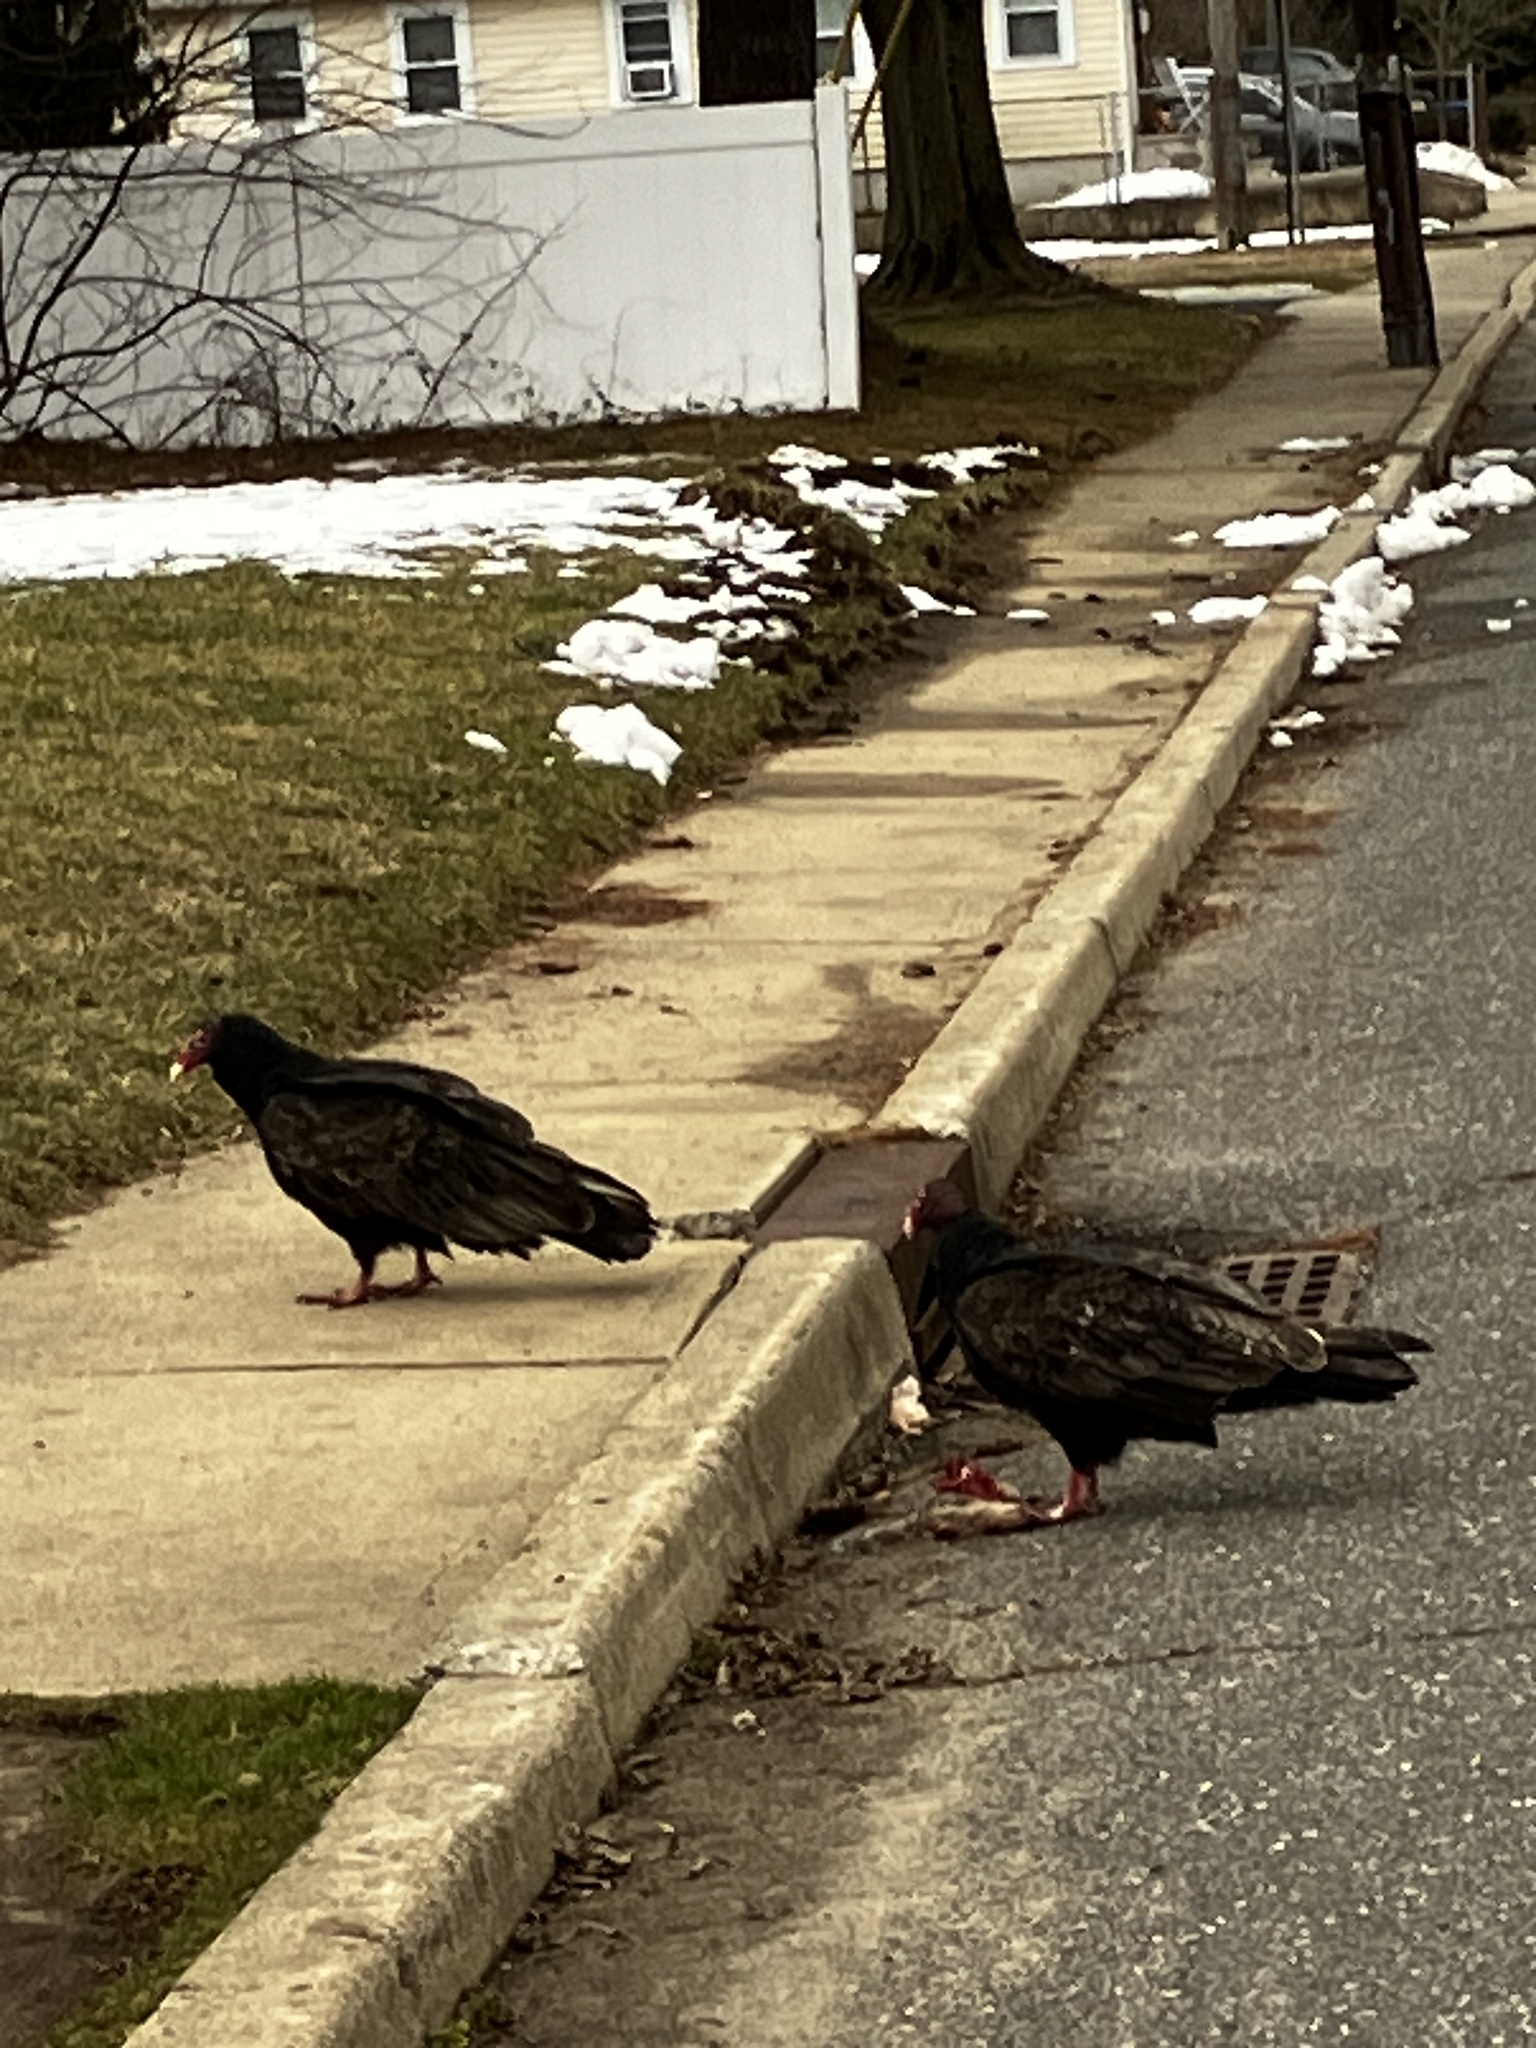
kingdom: Animalia
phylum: Chordata
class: Aves
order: Accipitriformes
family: Cathartidae
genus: Cathartes
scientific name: Cathartes aura
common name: Turkey vulture
